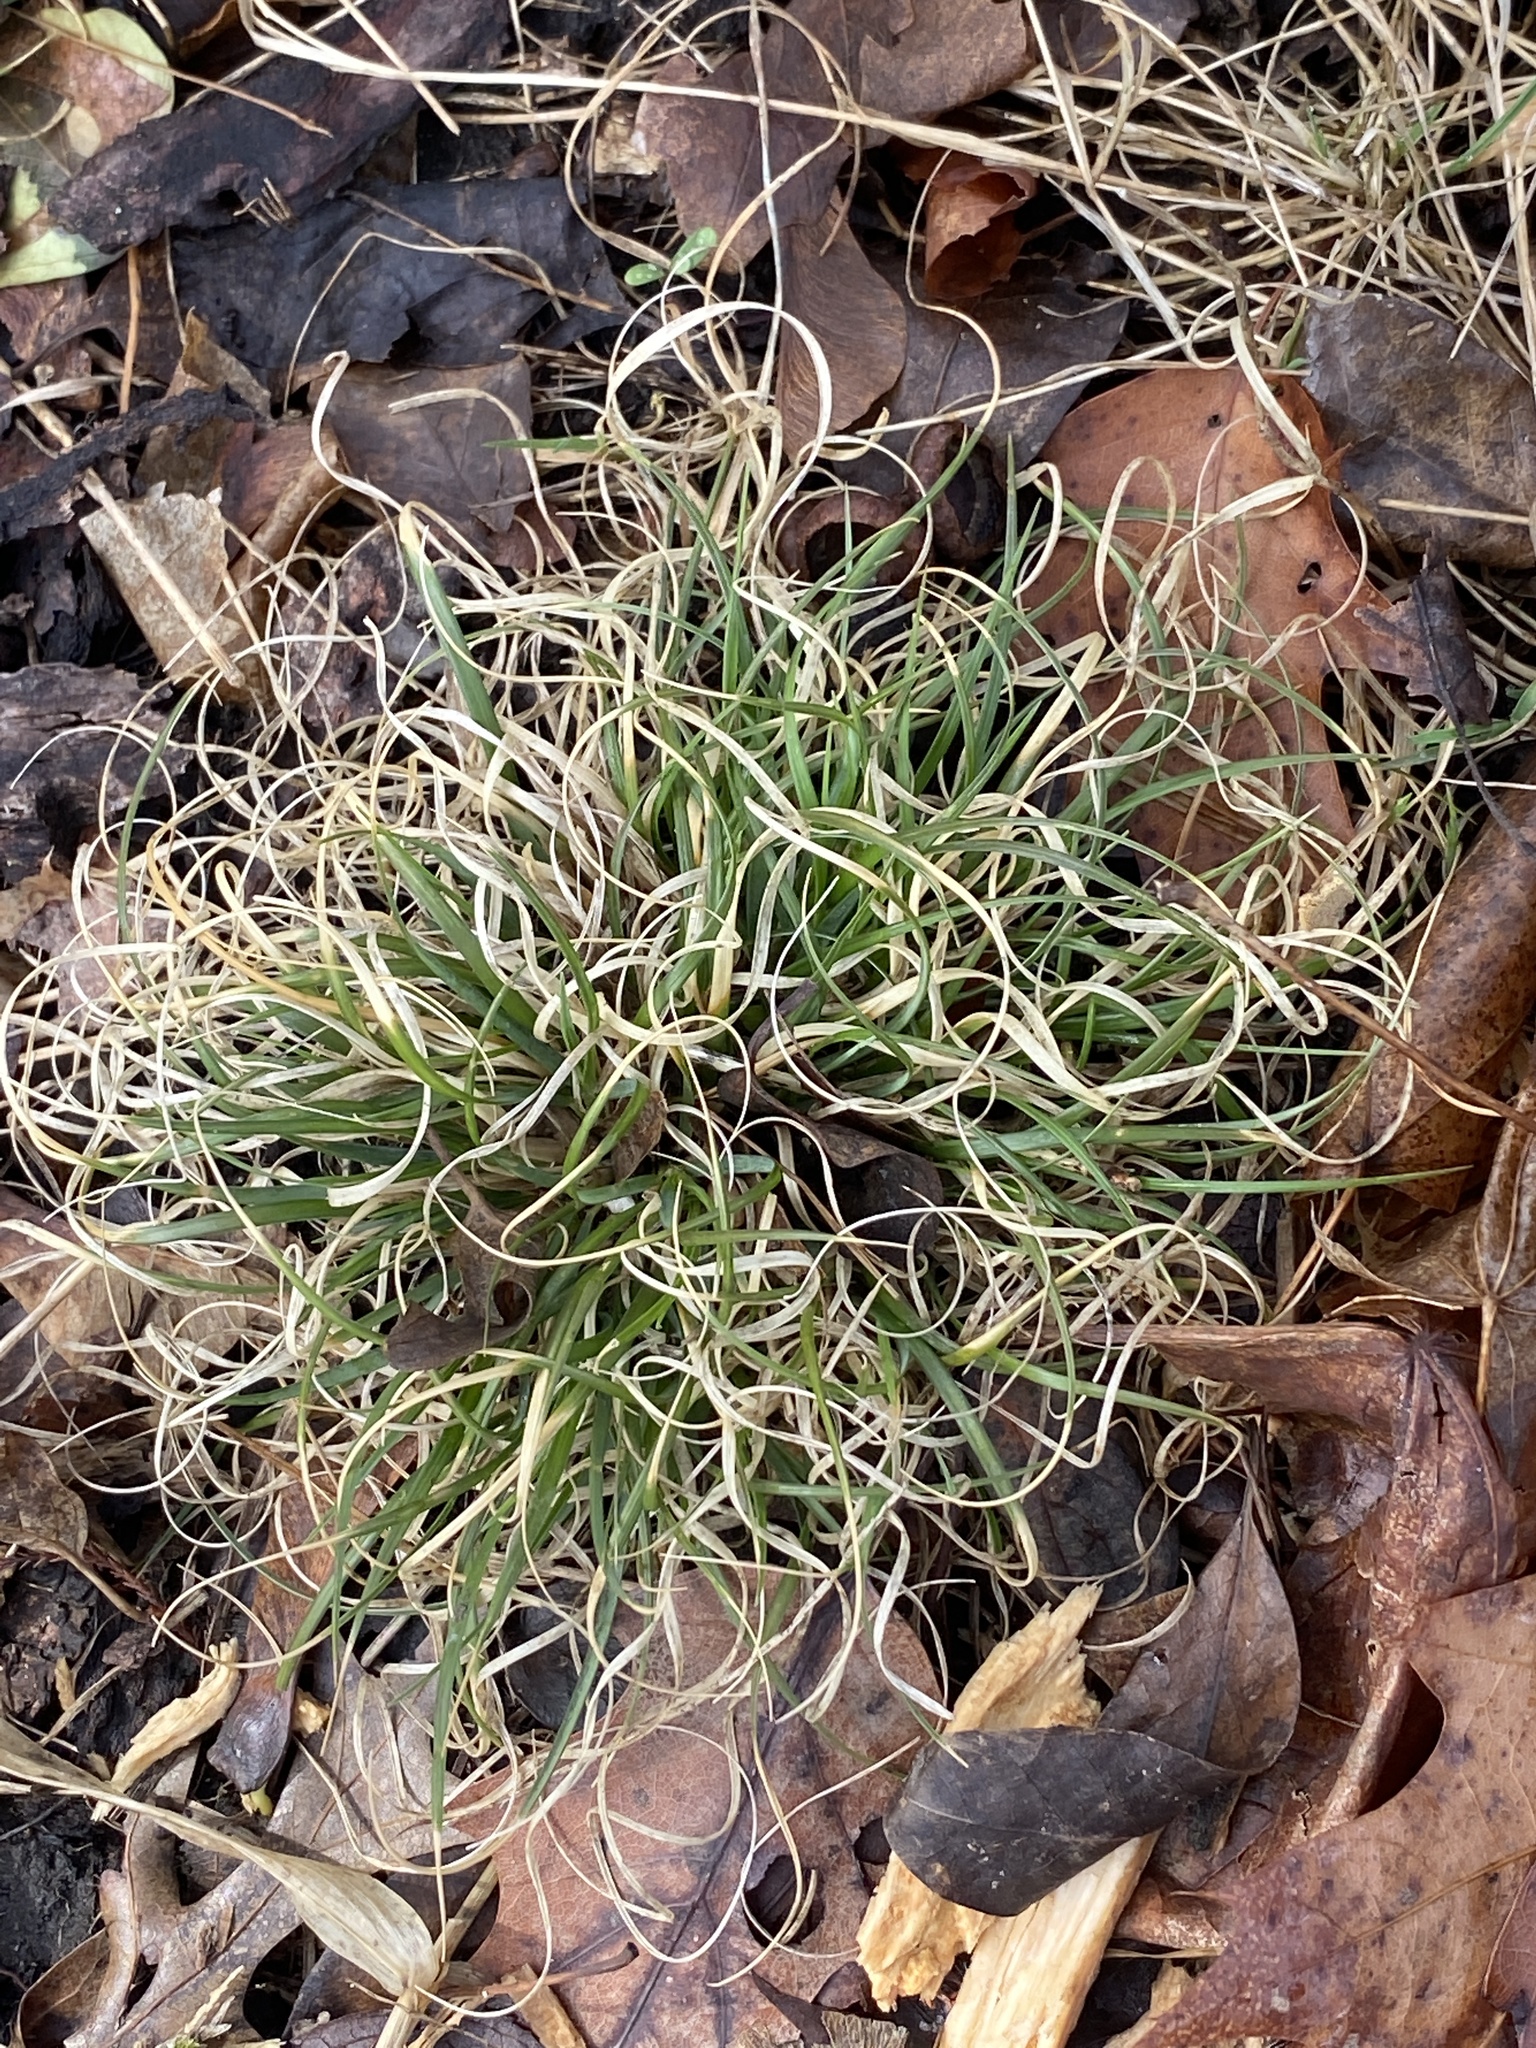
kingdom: Plantae
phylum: Tracheophyta
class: Liliopsida
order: Poales
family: Poaceae
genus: Danthonia
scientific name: Danthonia spicata
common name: Common wild oatgrass
